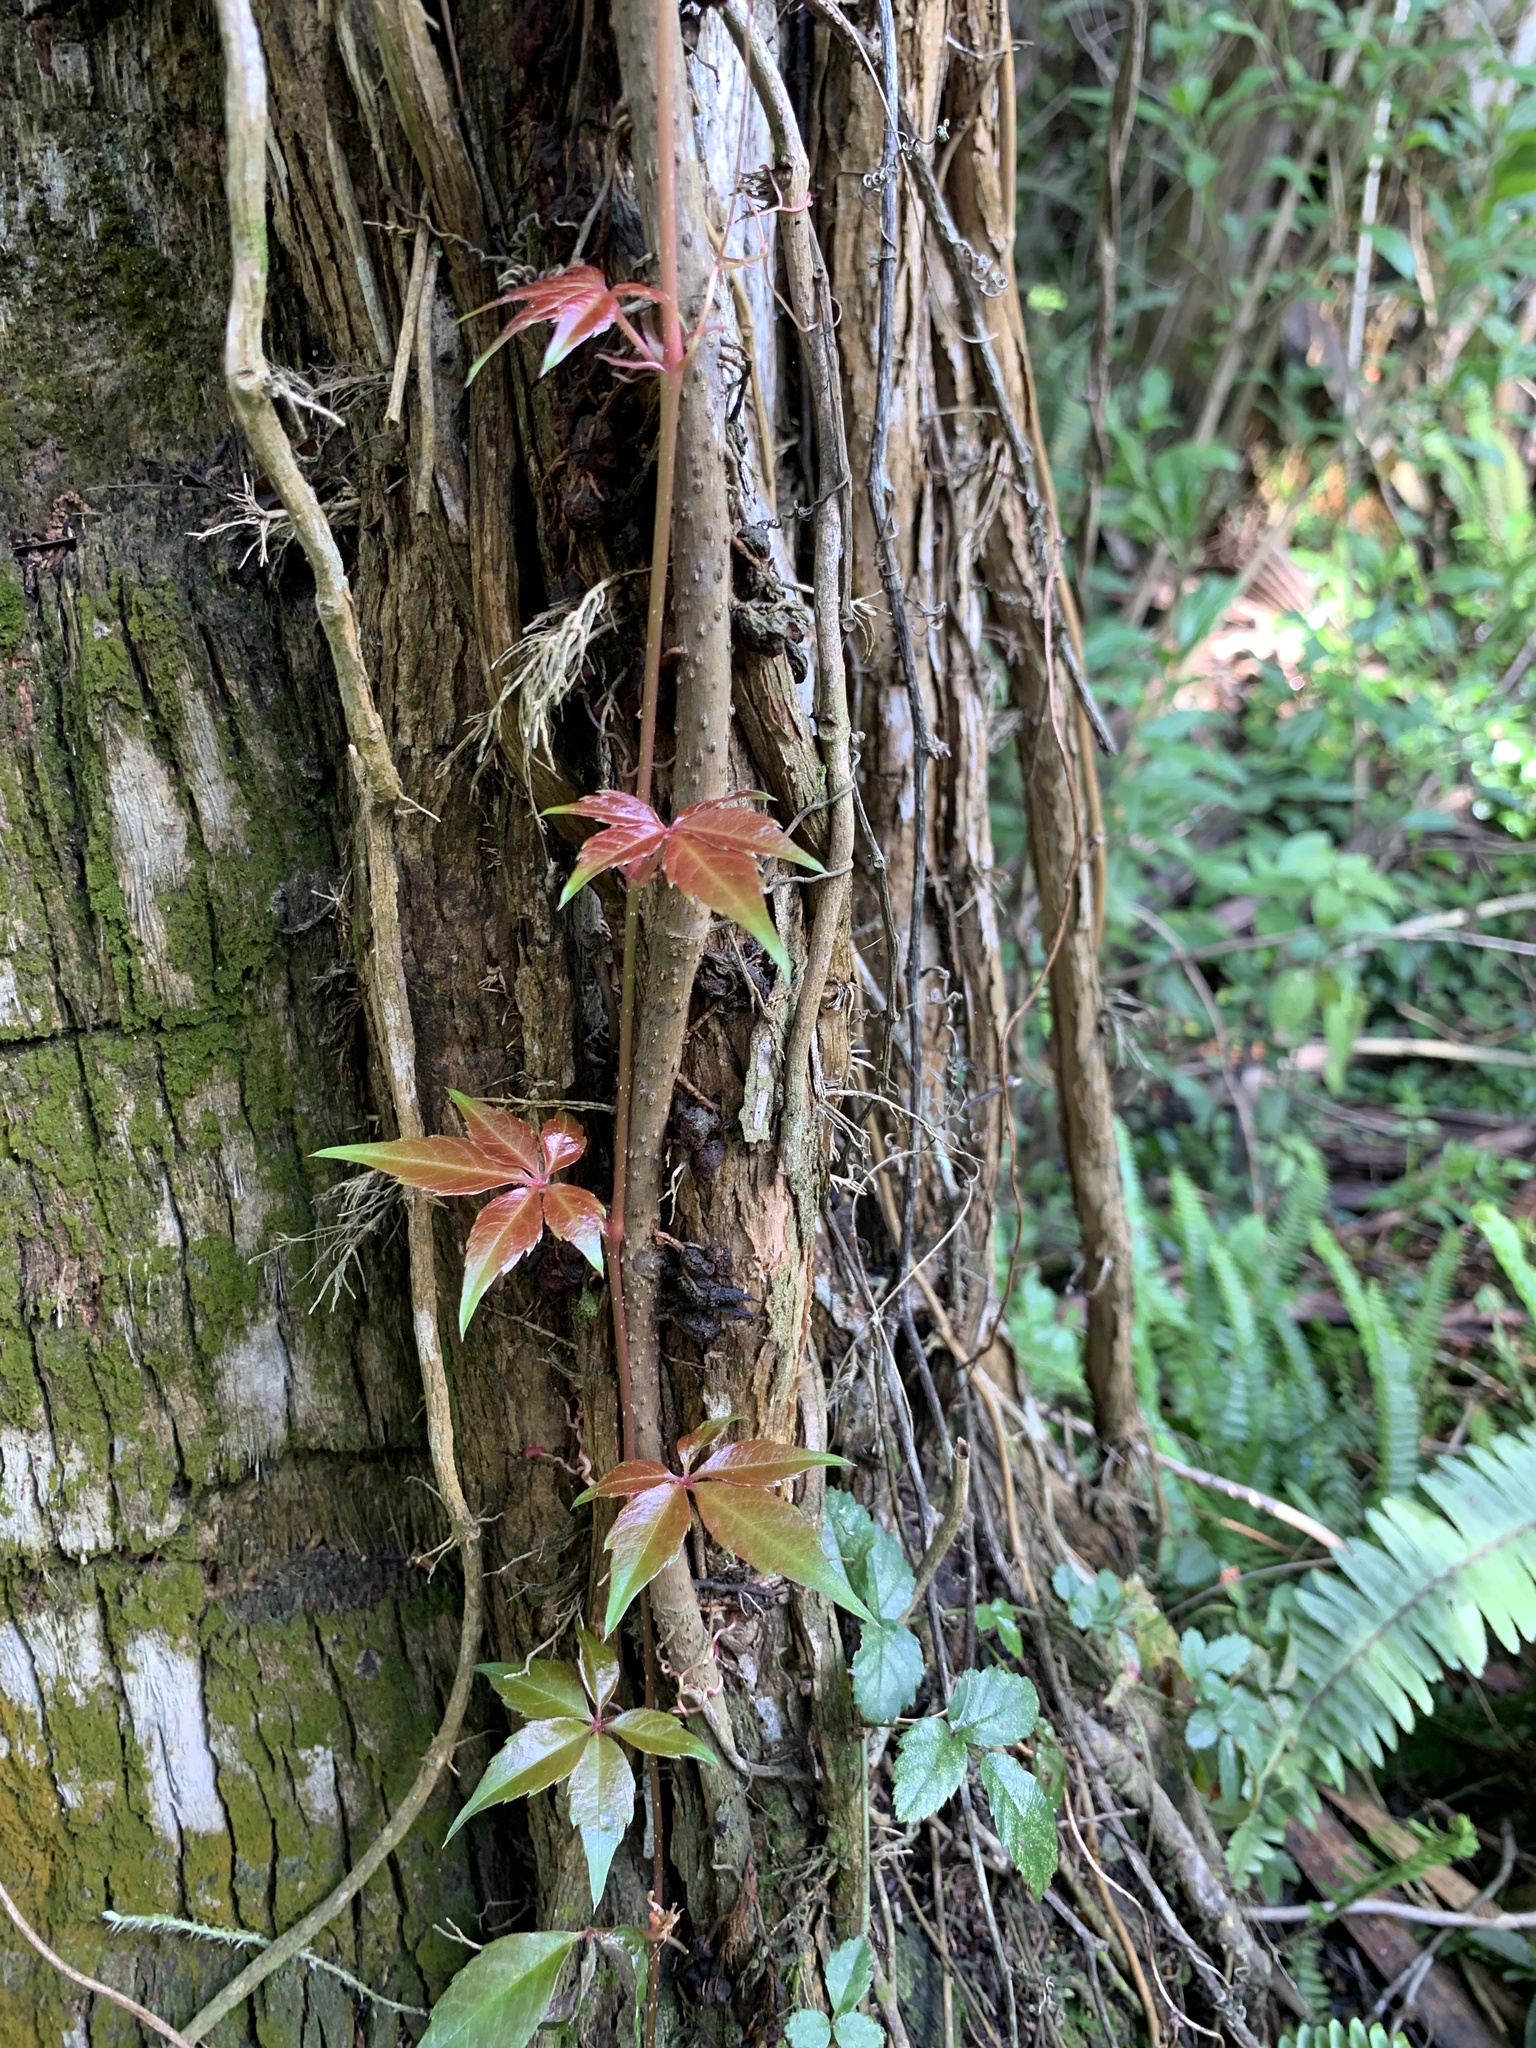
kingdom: Plantae
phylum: Tracheophyta
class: Magnoliopsida
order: Vitales
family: Vitaceae
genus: Parthenocissus
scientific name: Parthenocissus quinquefolia
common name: Virginia-creeper
